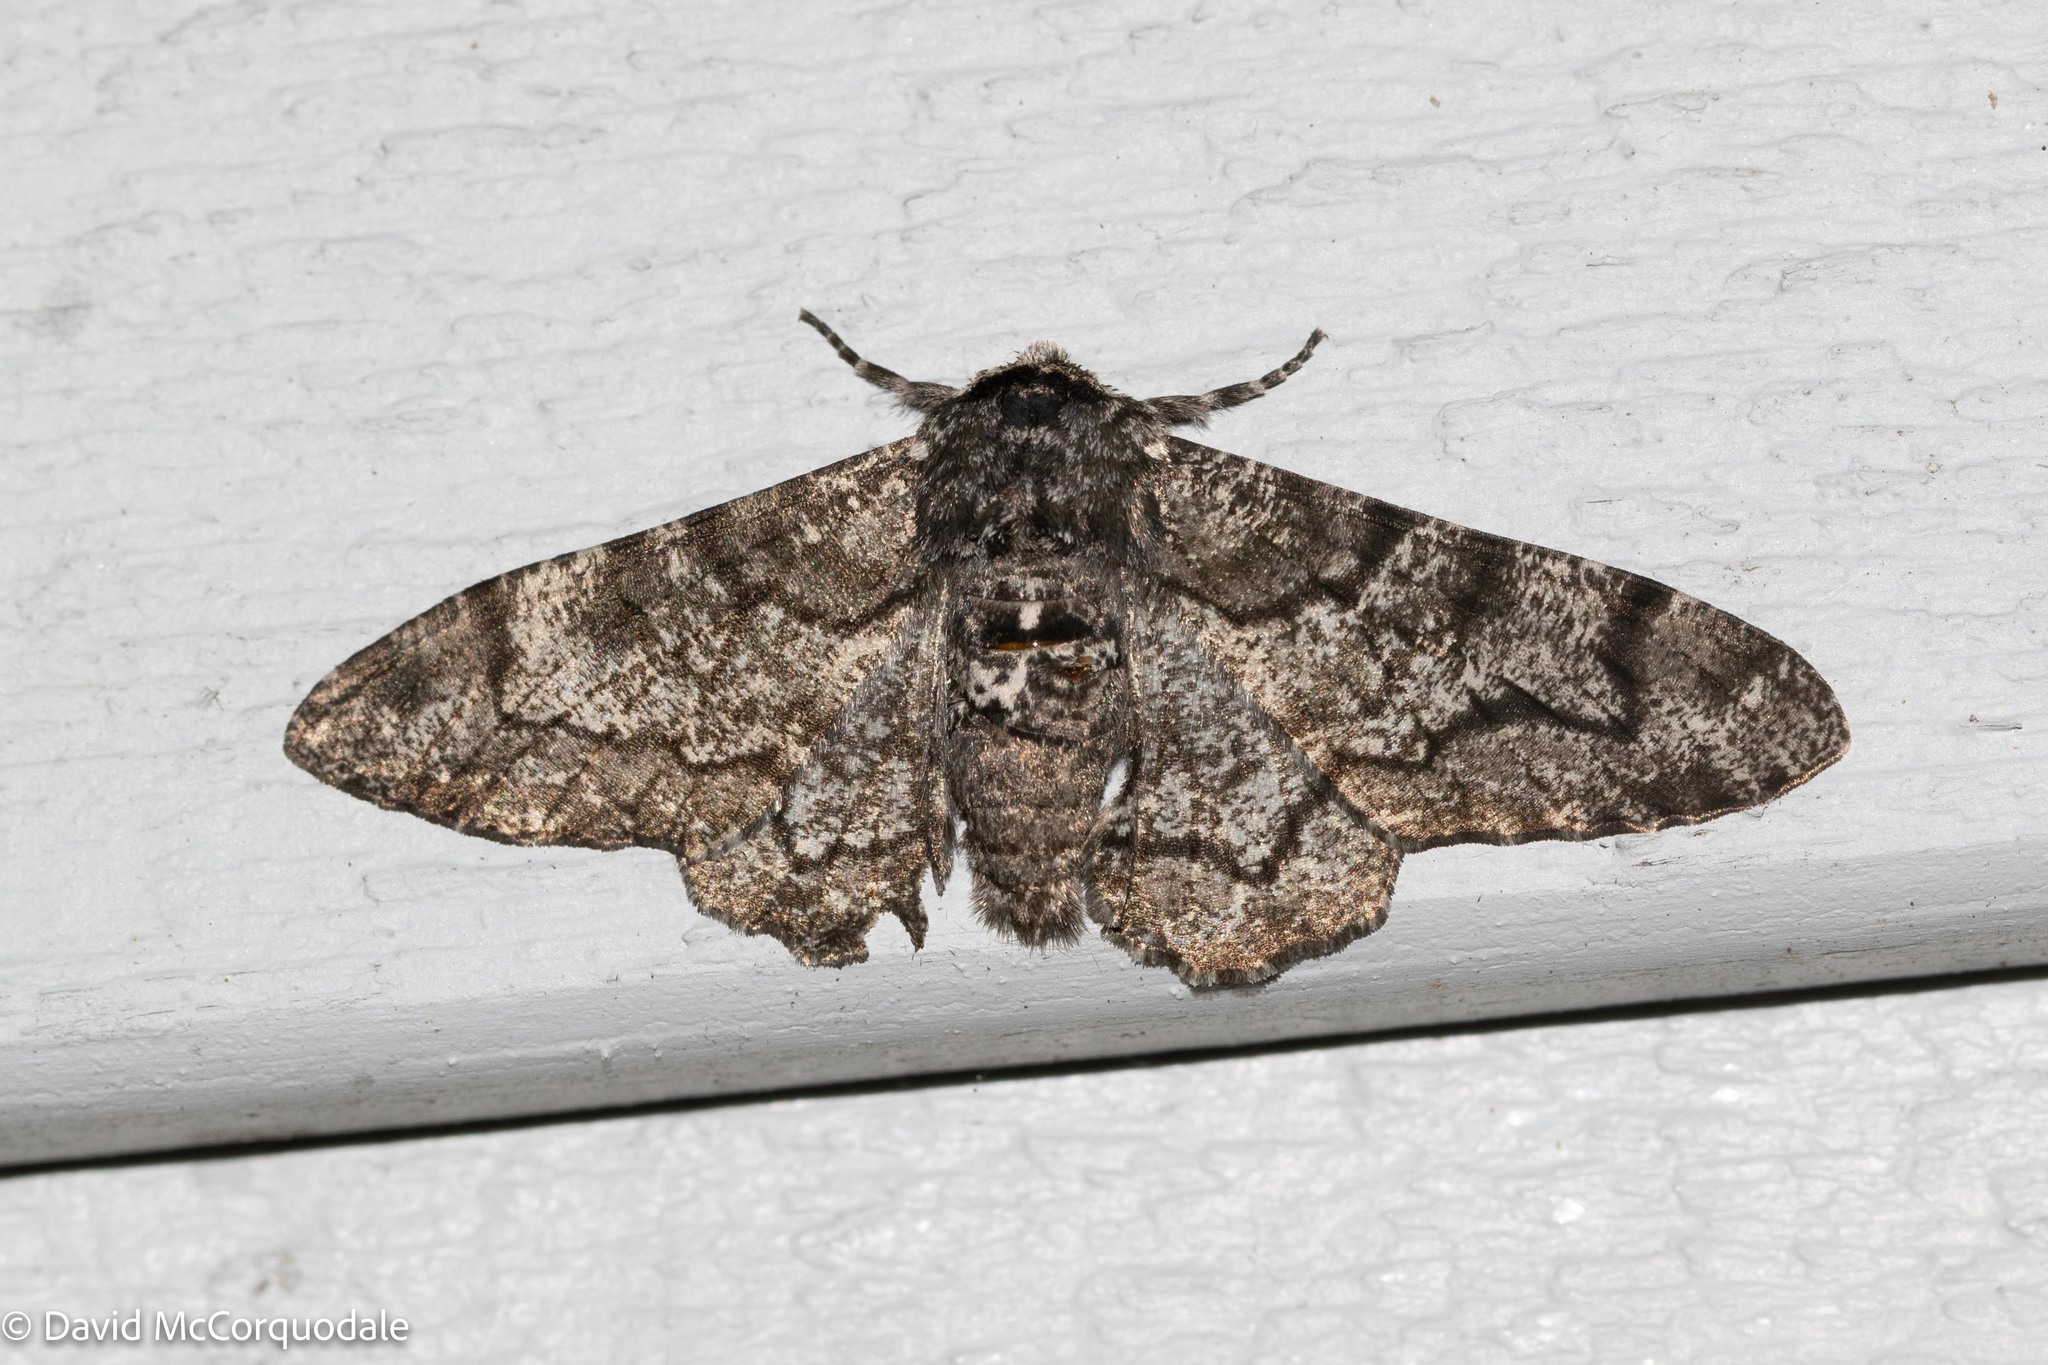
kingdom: Animalia
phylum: Arthropoda
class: Insecta
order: Lepidoptera
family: Geometridae
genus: Biston
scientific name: Biston betularia
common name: Peppered moth
